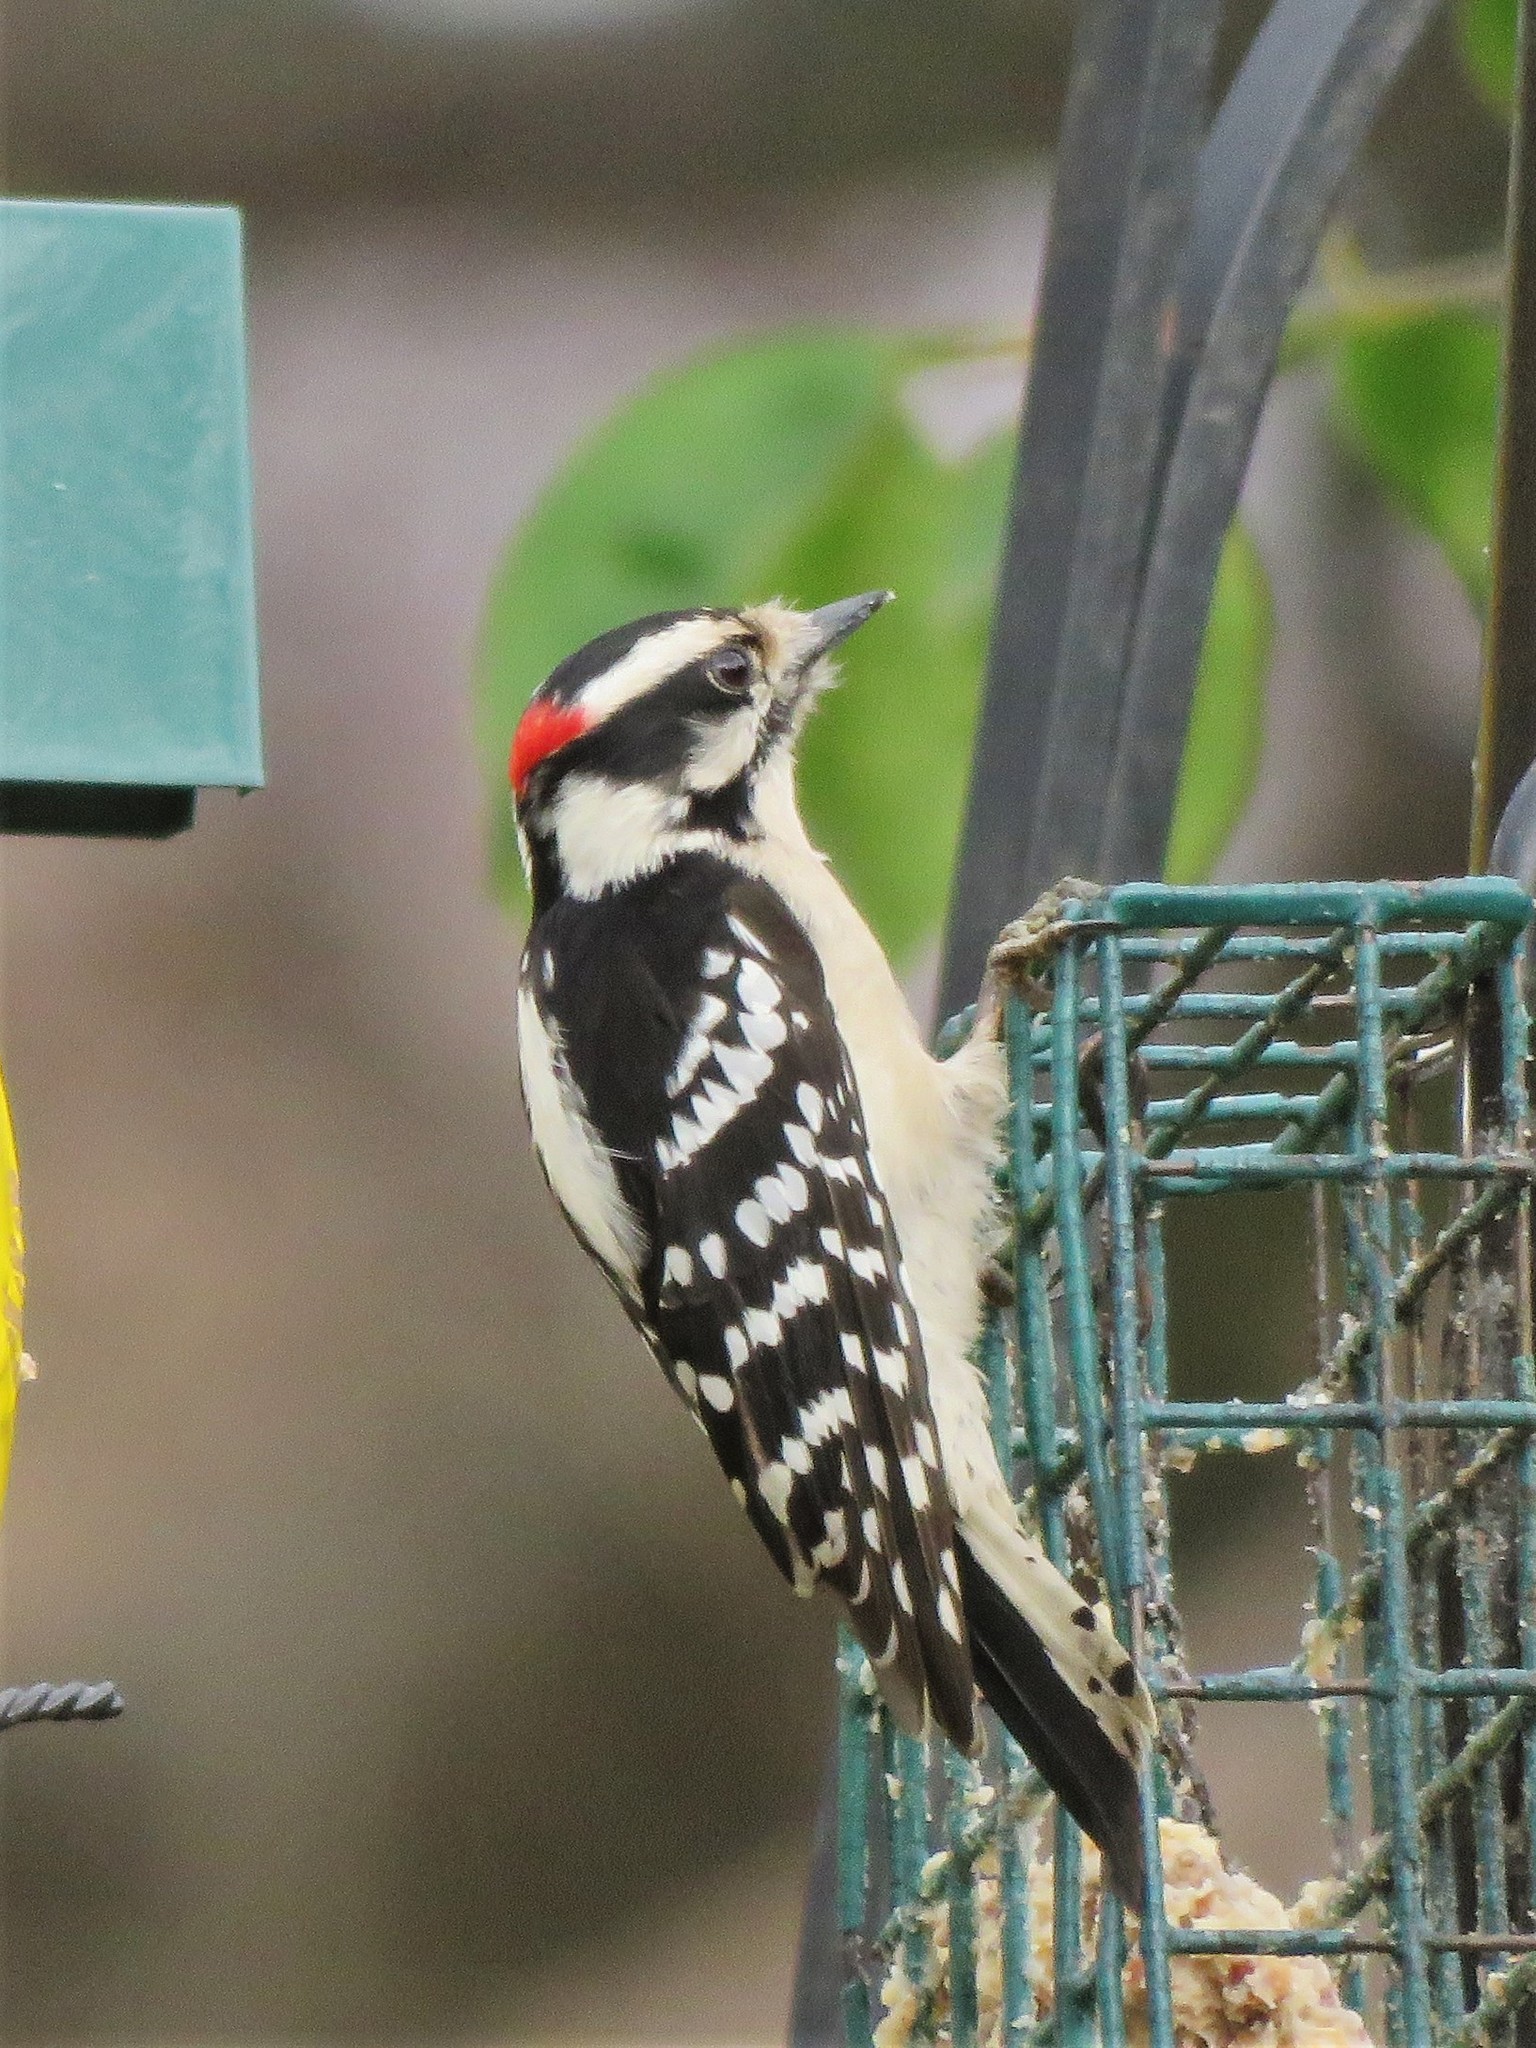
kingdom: Animalia
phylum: Chordata
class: Aves
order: Piciformes
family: Picidae
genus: Dryobates
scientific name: Dryobates pubescens
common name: Downy woodpecker
